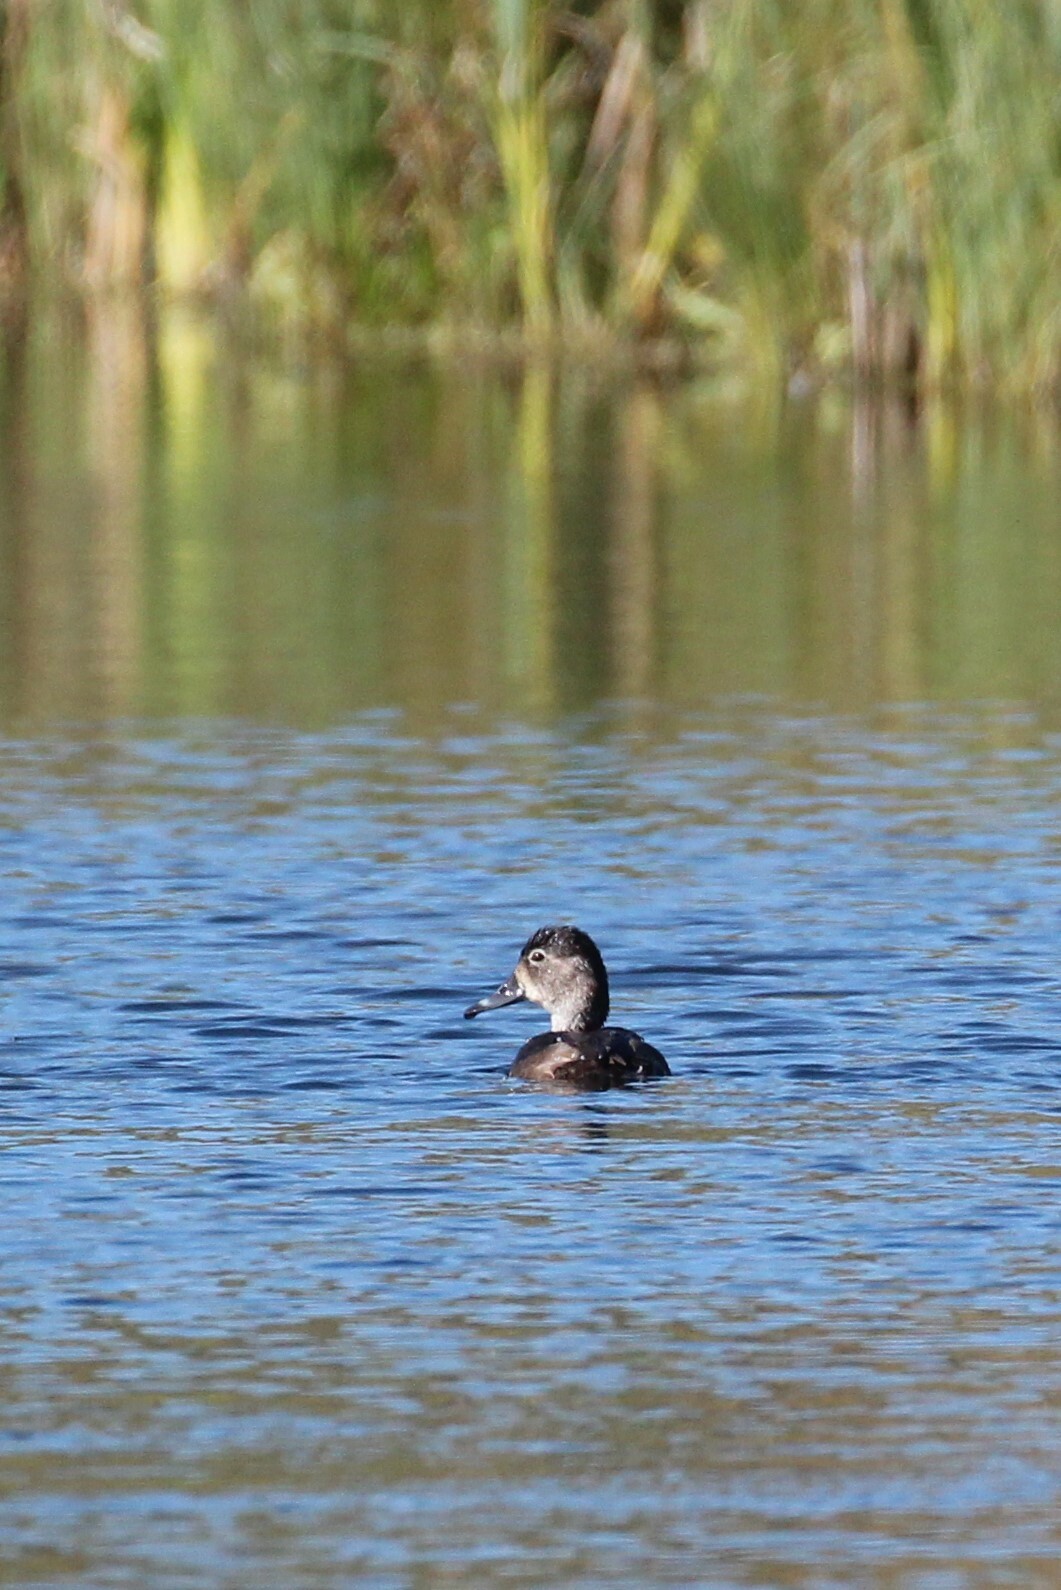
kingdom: Animalia
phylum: Chordata
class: Aves
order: Anseriformes
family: Anatidae
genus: Aythya
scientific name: Aythya collaris
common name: Ring-necked duck
